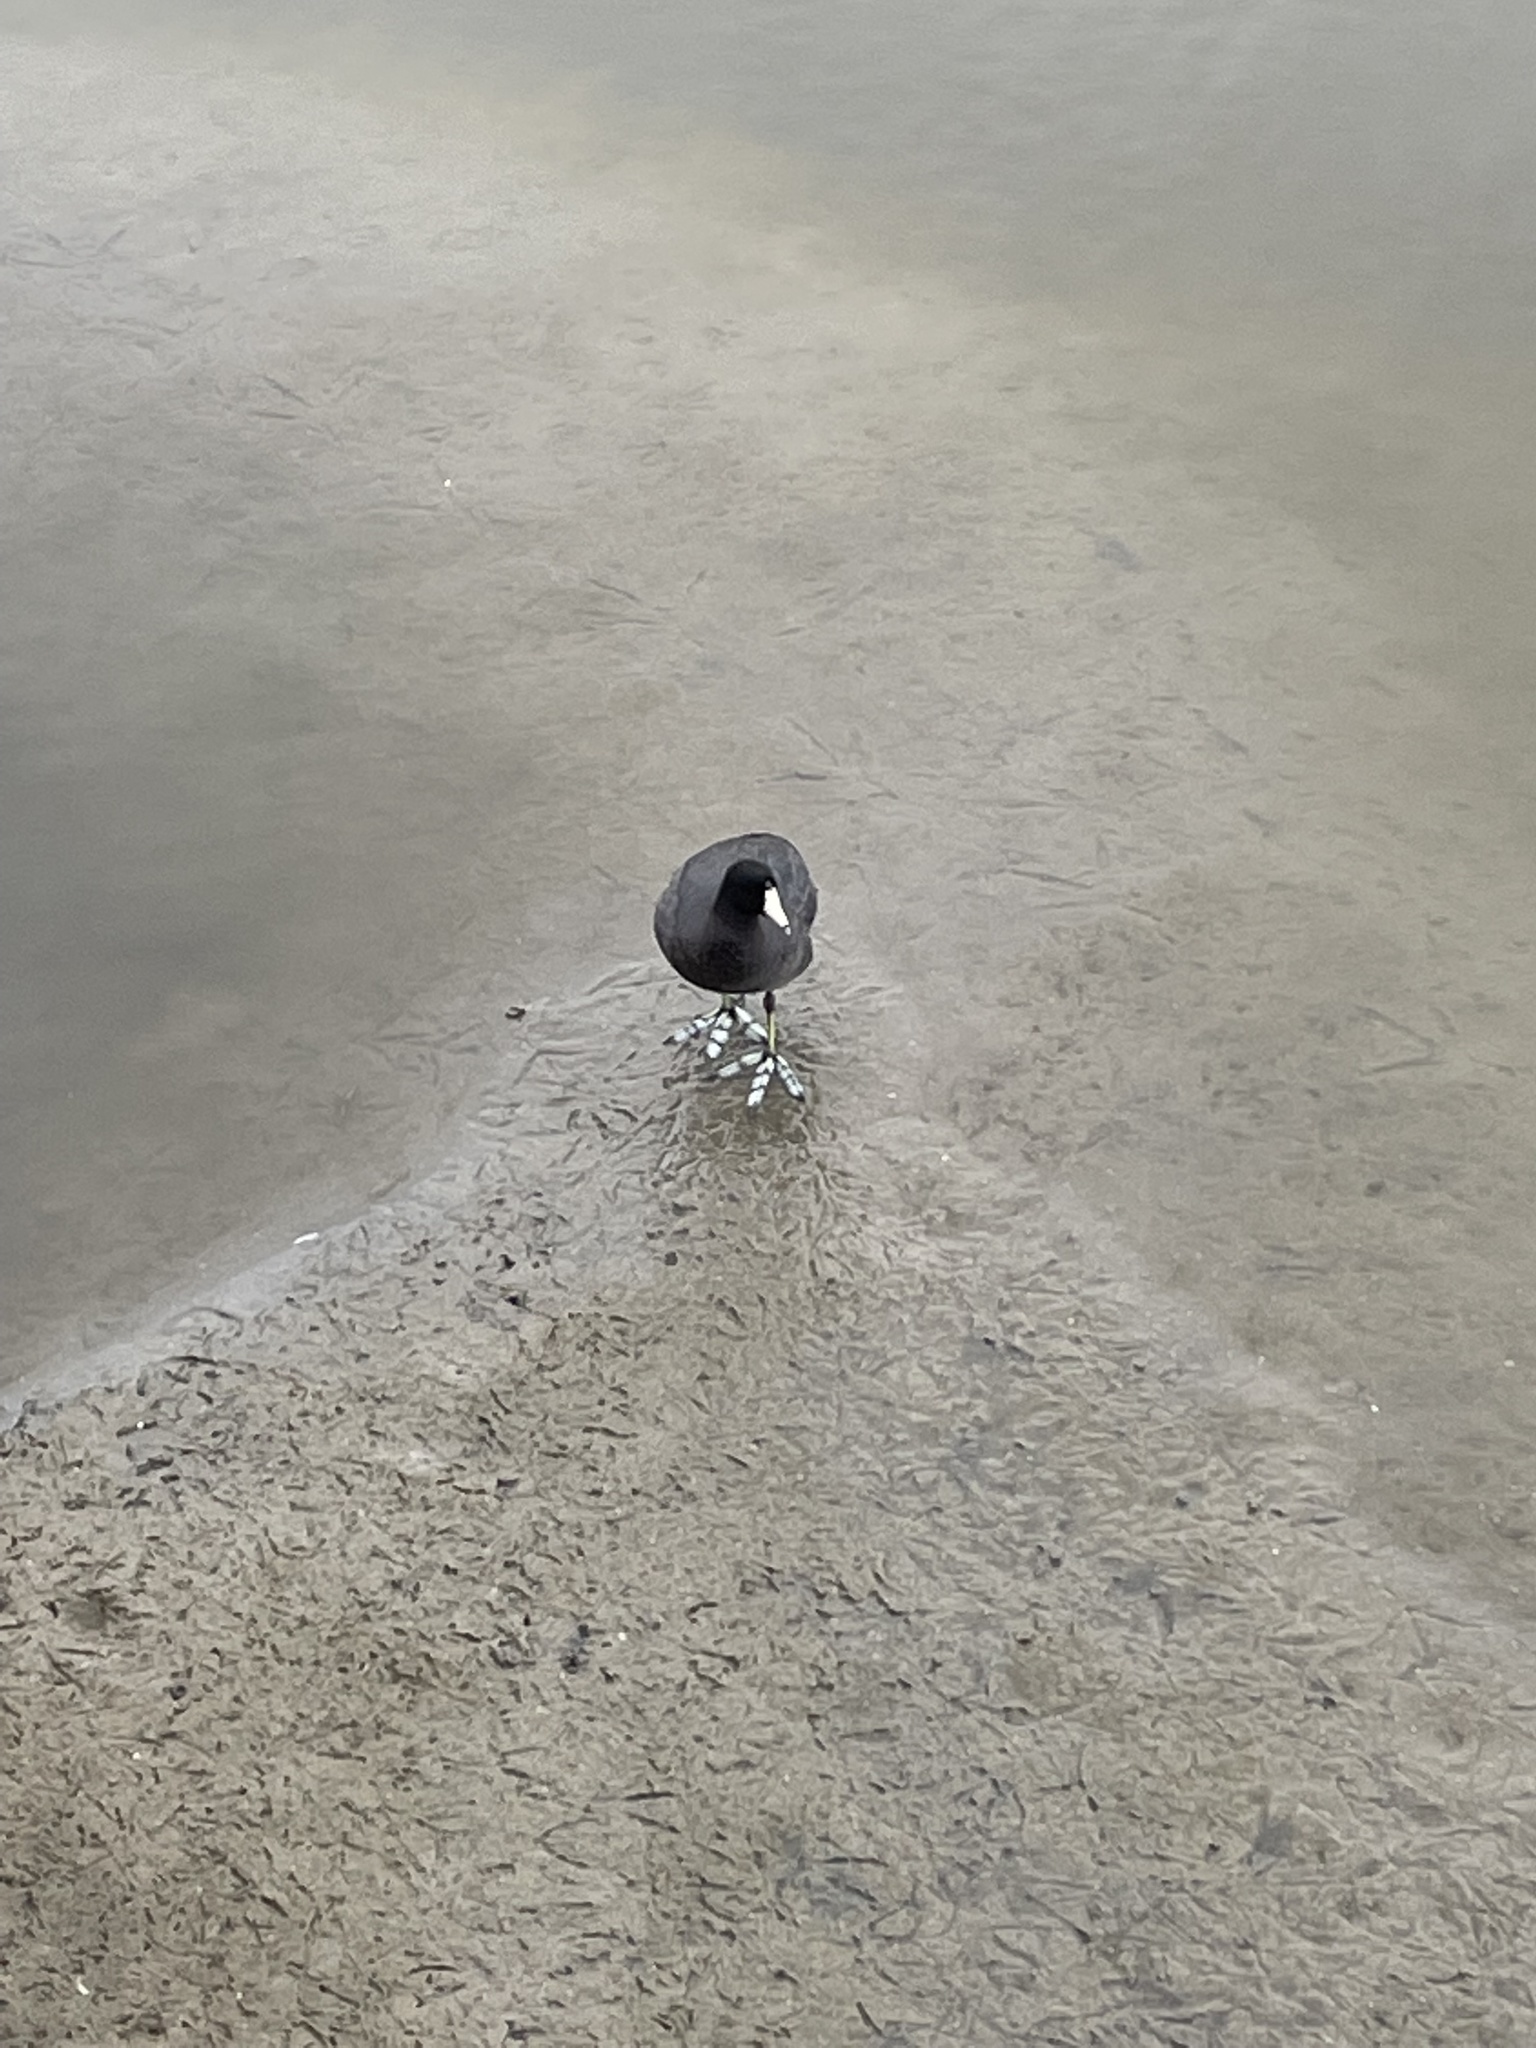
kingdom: Animalia
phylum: Chordata
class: Aves
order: Gruiformes
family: Rallidae
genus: Fulica
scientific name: Fulica americana
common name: American coot
